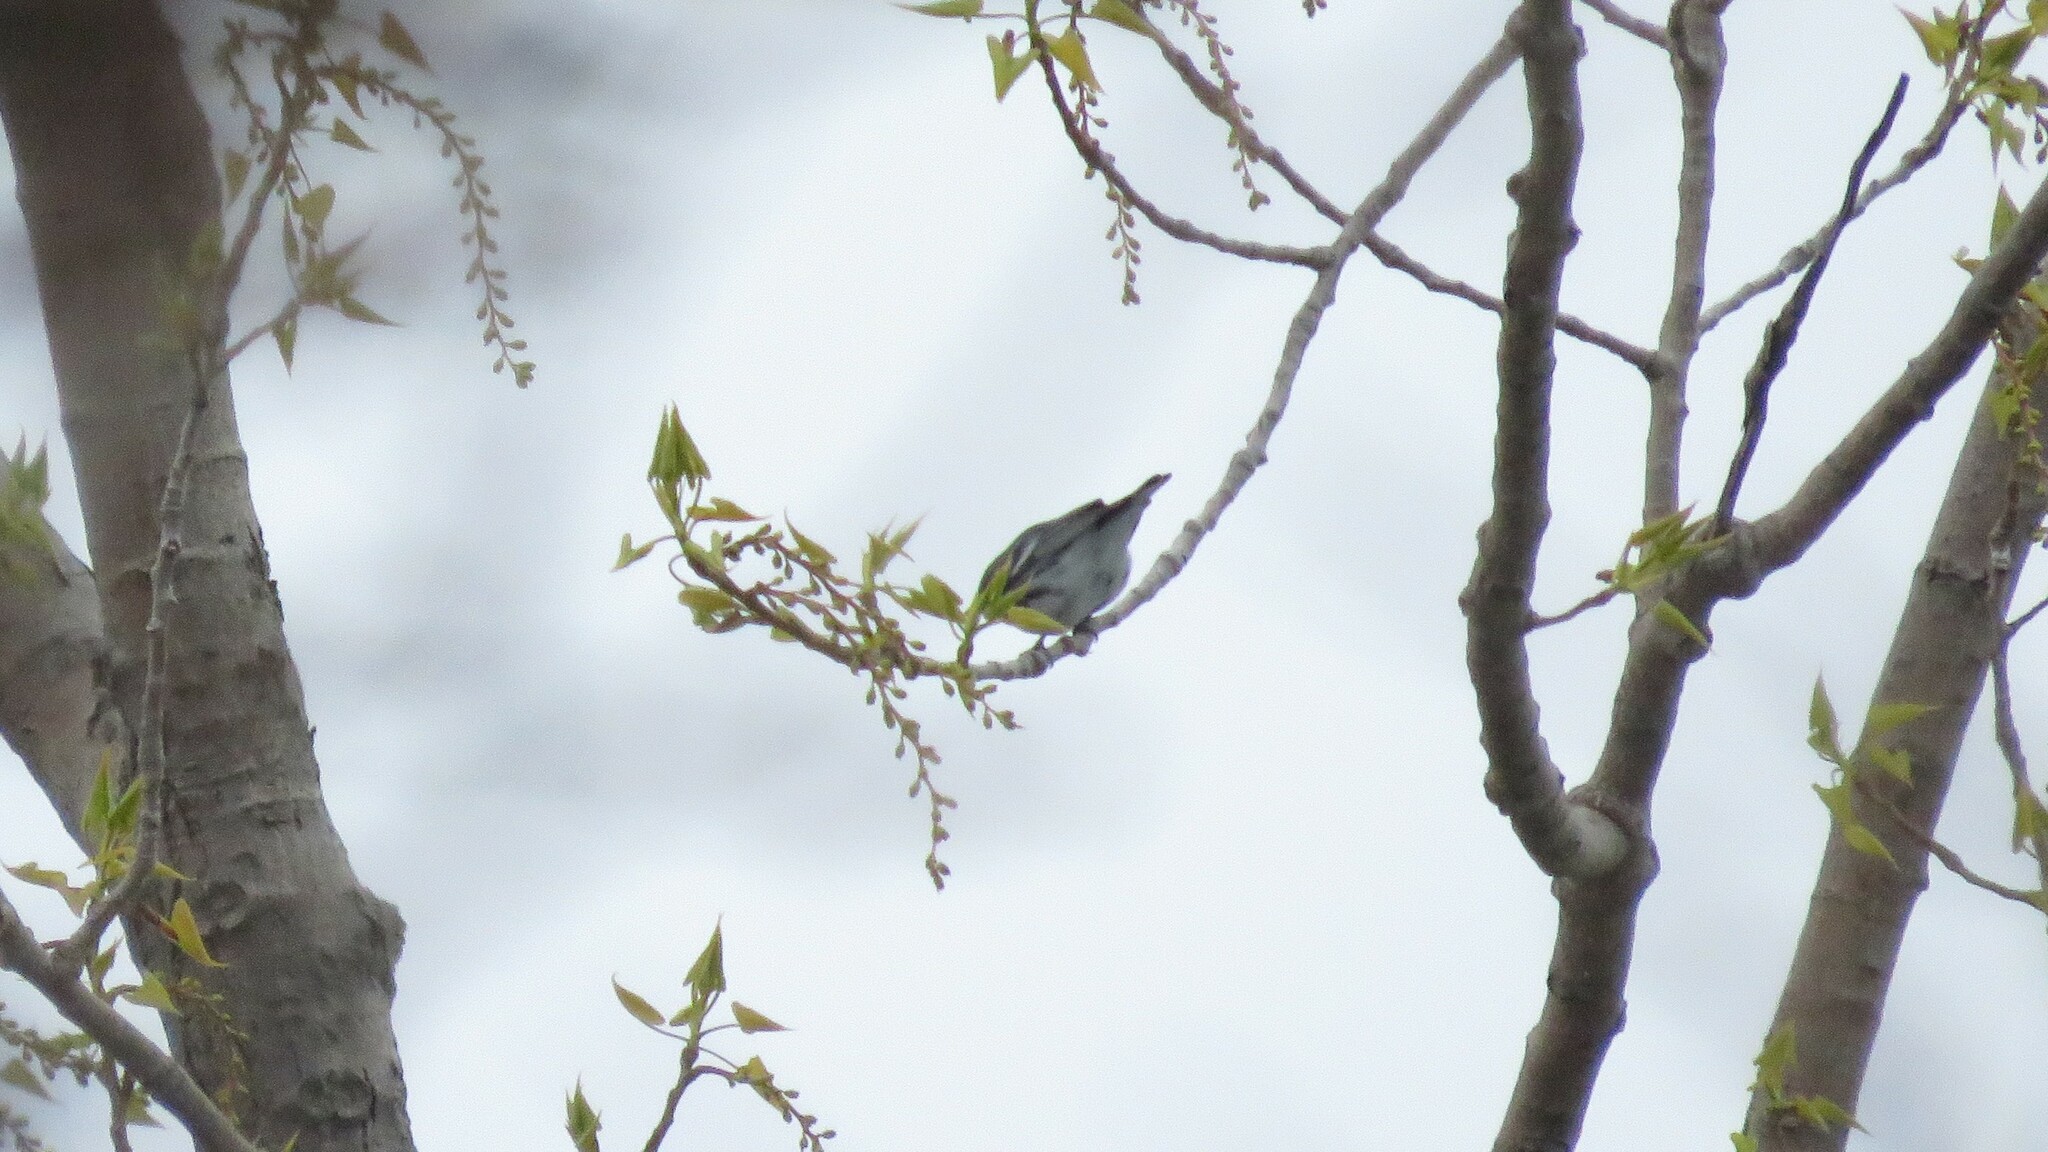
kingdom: Animalia
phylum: Chordata
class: Aves
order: Passeriformes
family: Parulidae
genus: Setophaga
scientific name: Setophaga cerulea
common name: Cerulean warbler
